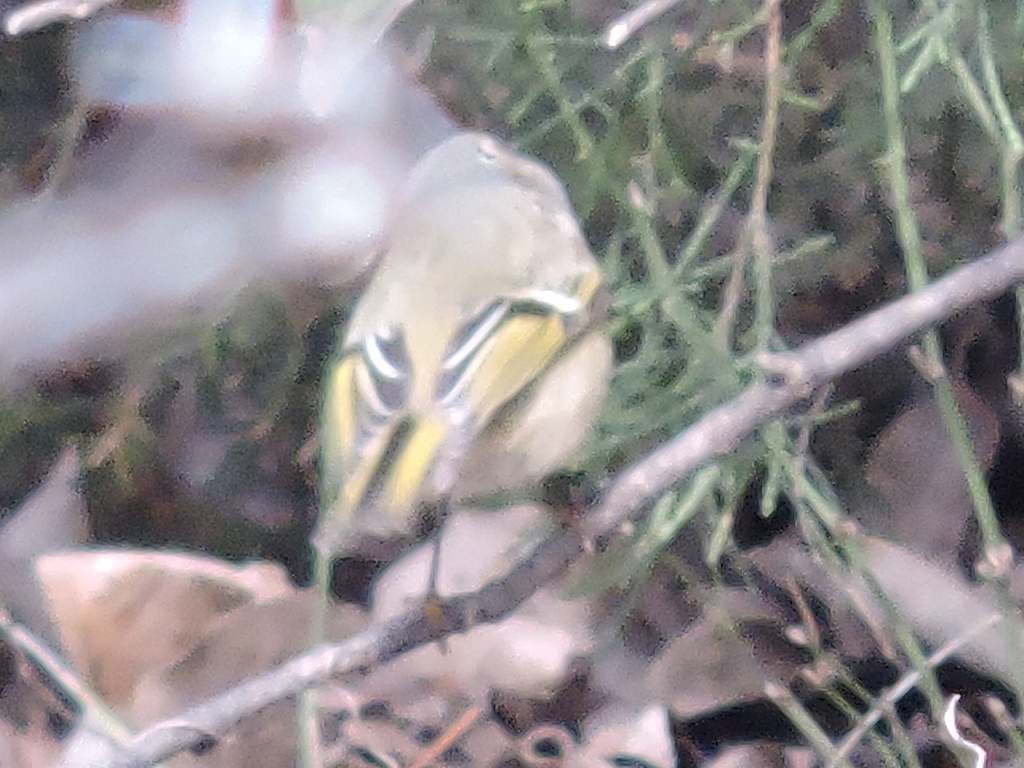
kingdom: Animalia
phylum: Chordata
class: Aves
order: Passeriformes
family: Regulidae
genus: Regulus
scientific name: Regulus calendula
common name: Ruby-crowned kinglet
